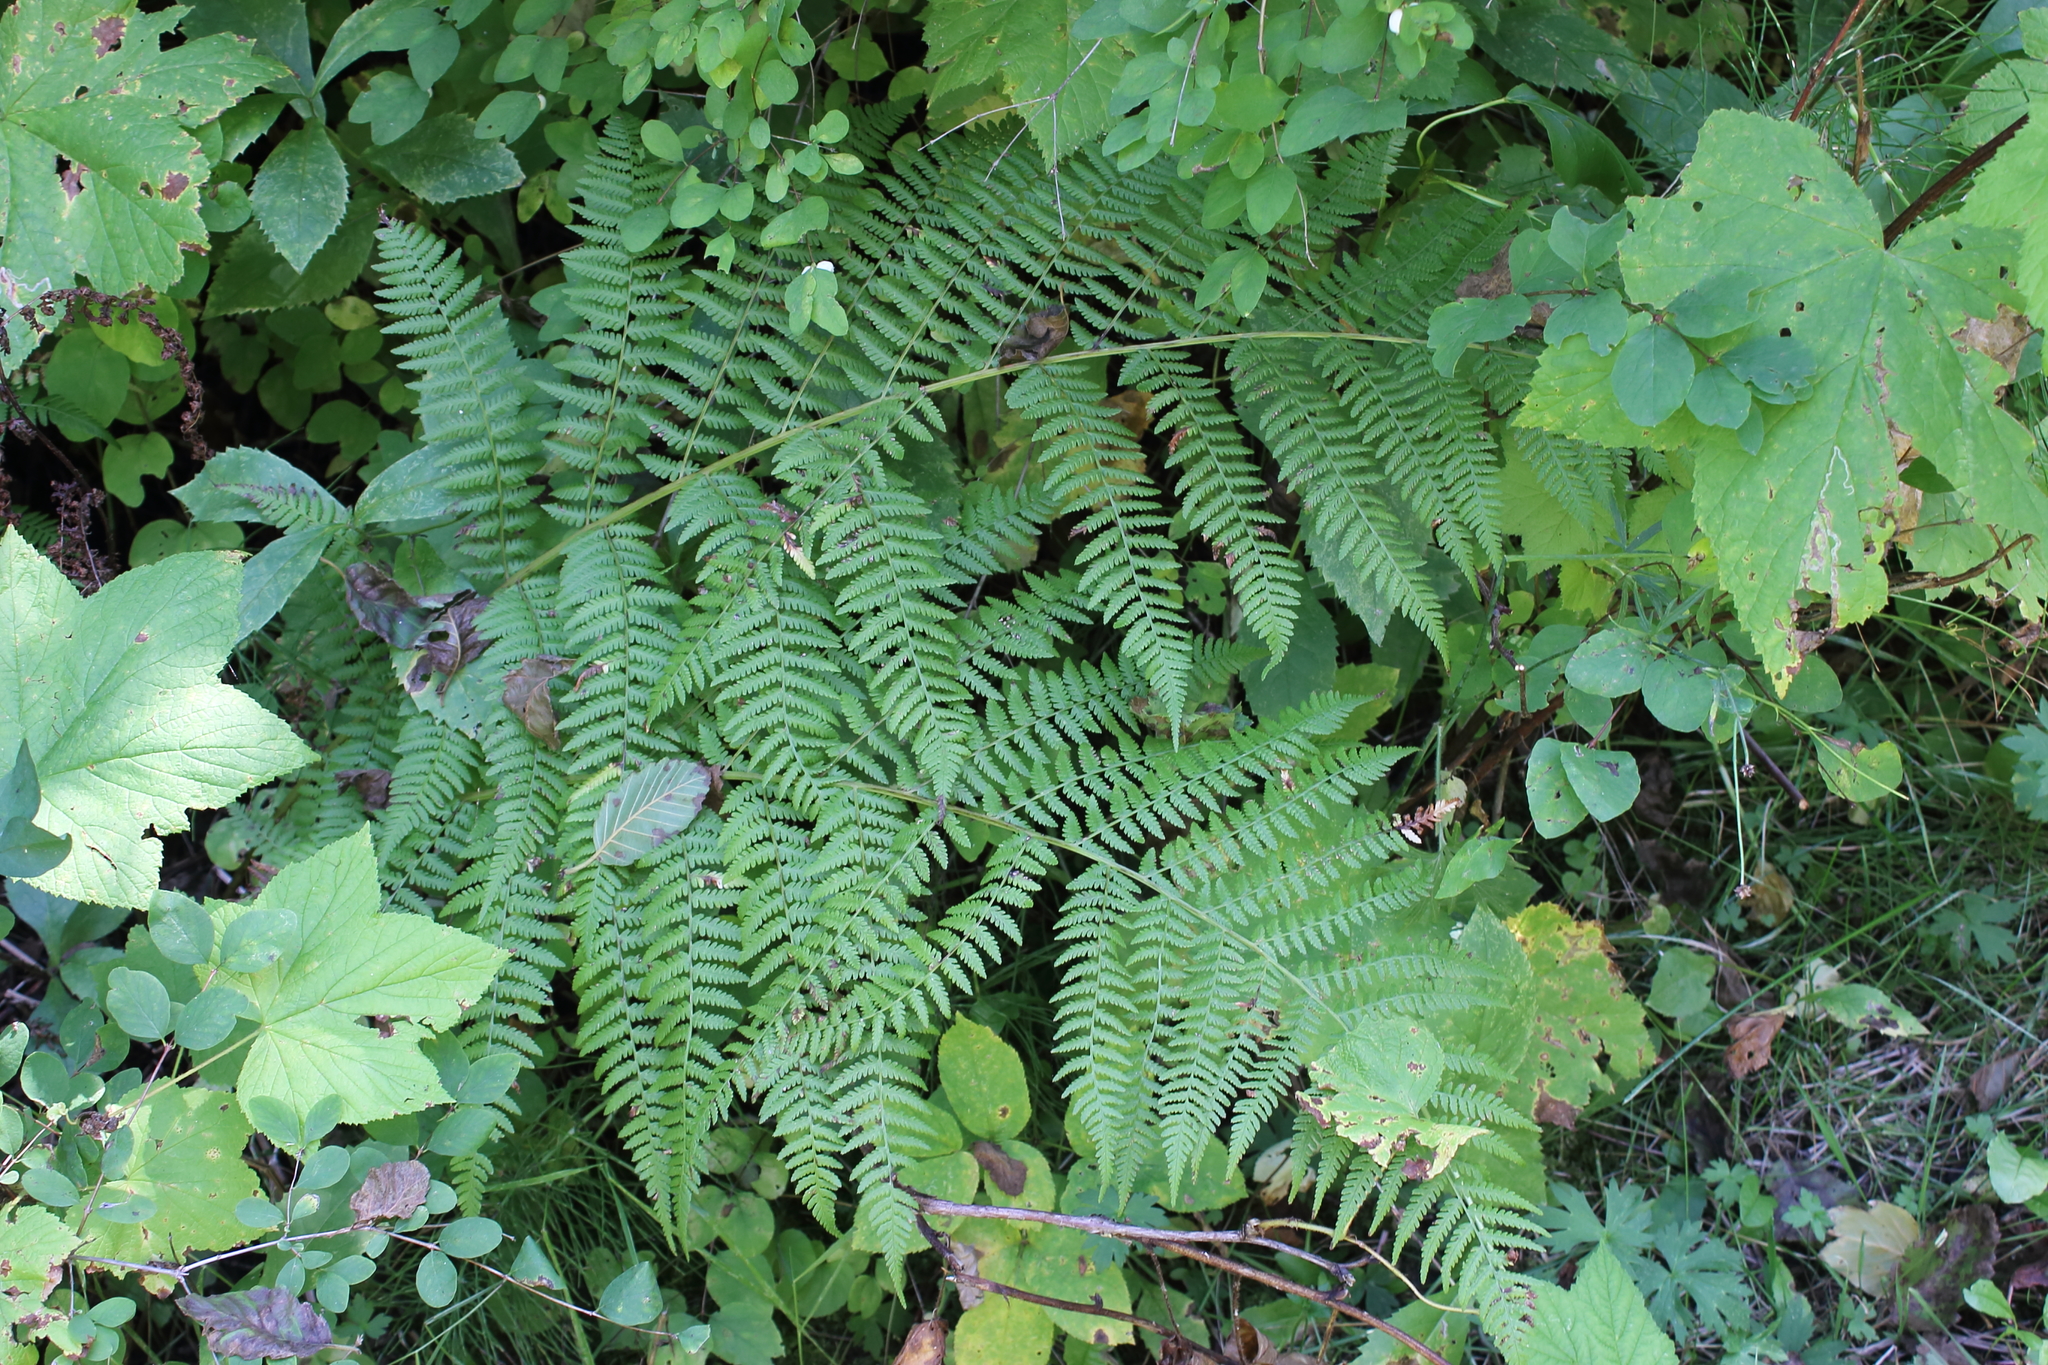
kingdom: Plantae
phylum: Tracheophyta
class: Polypodiopsida
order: Polypodiales
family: Athyriaceae
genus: Athyrium
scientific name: Athyrium filix-femina
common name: Lady fern
